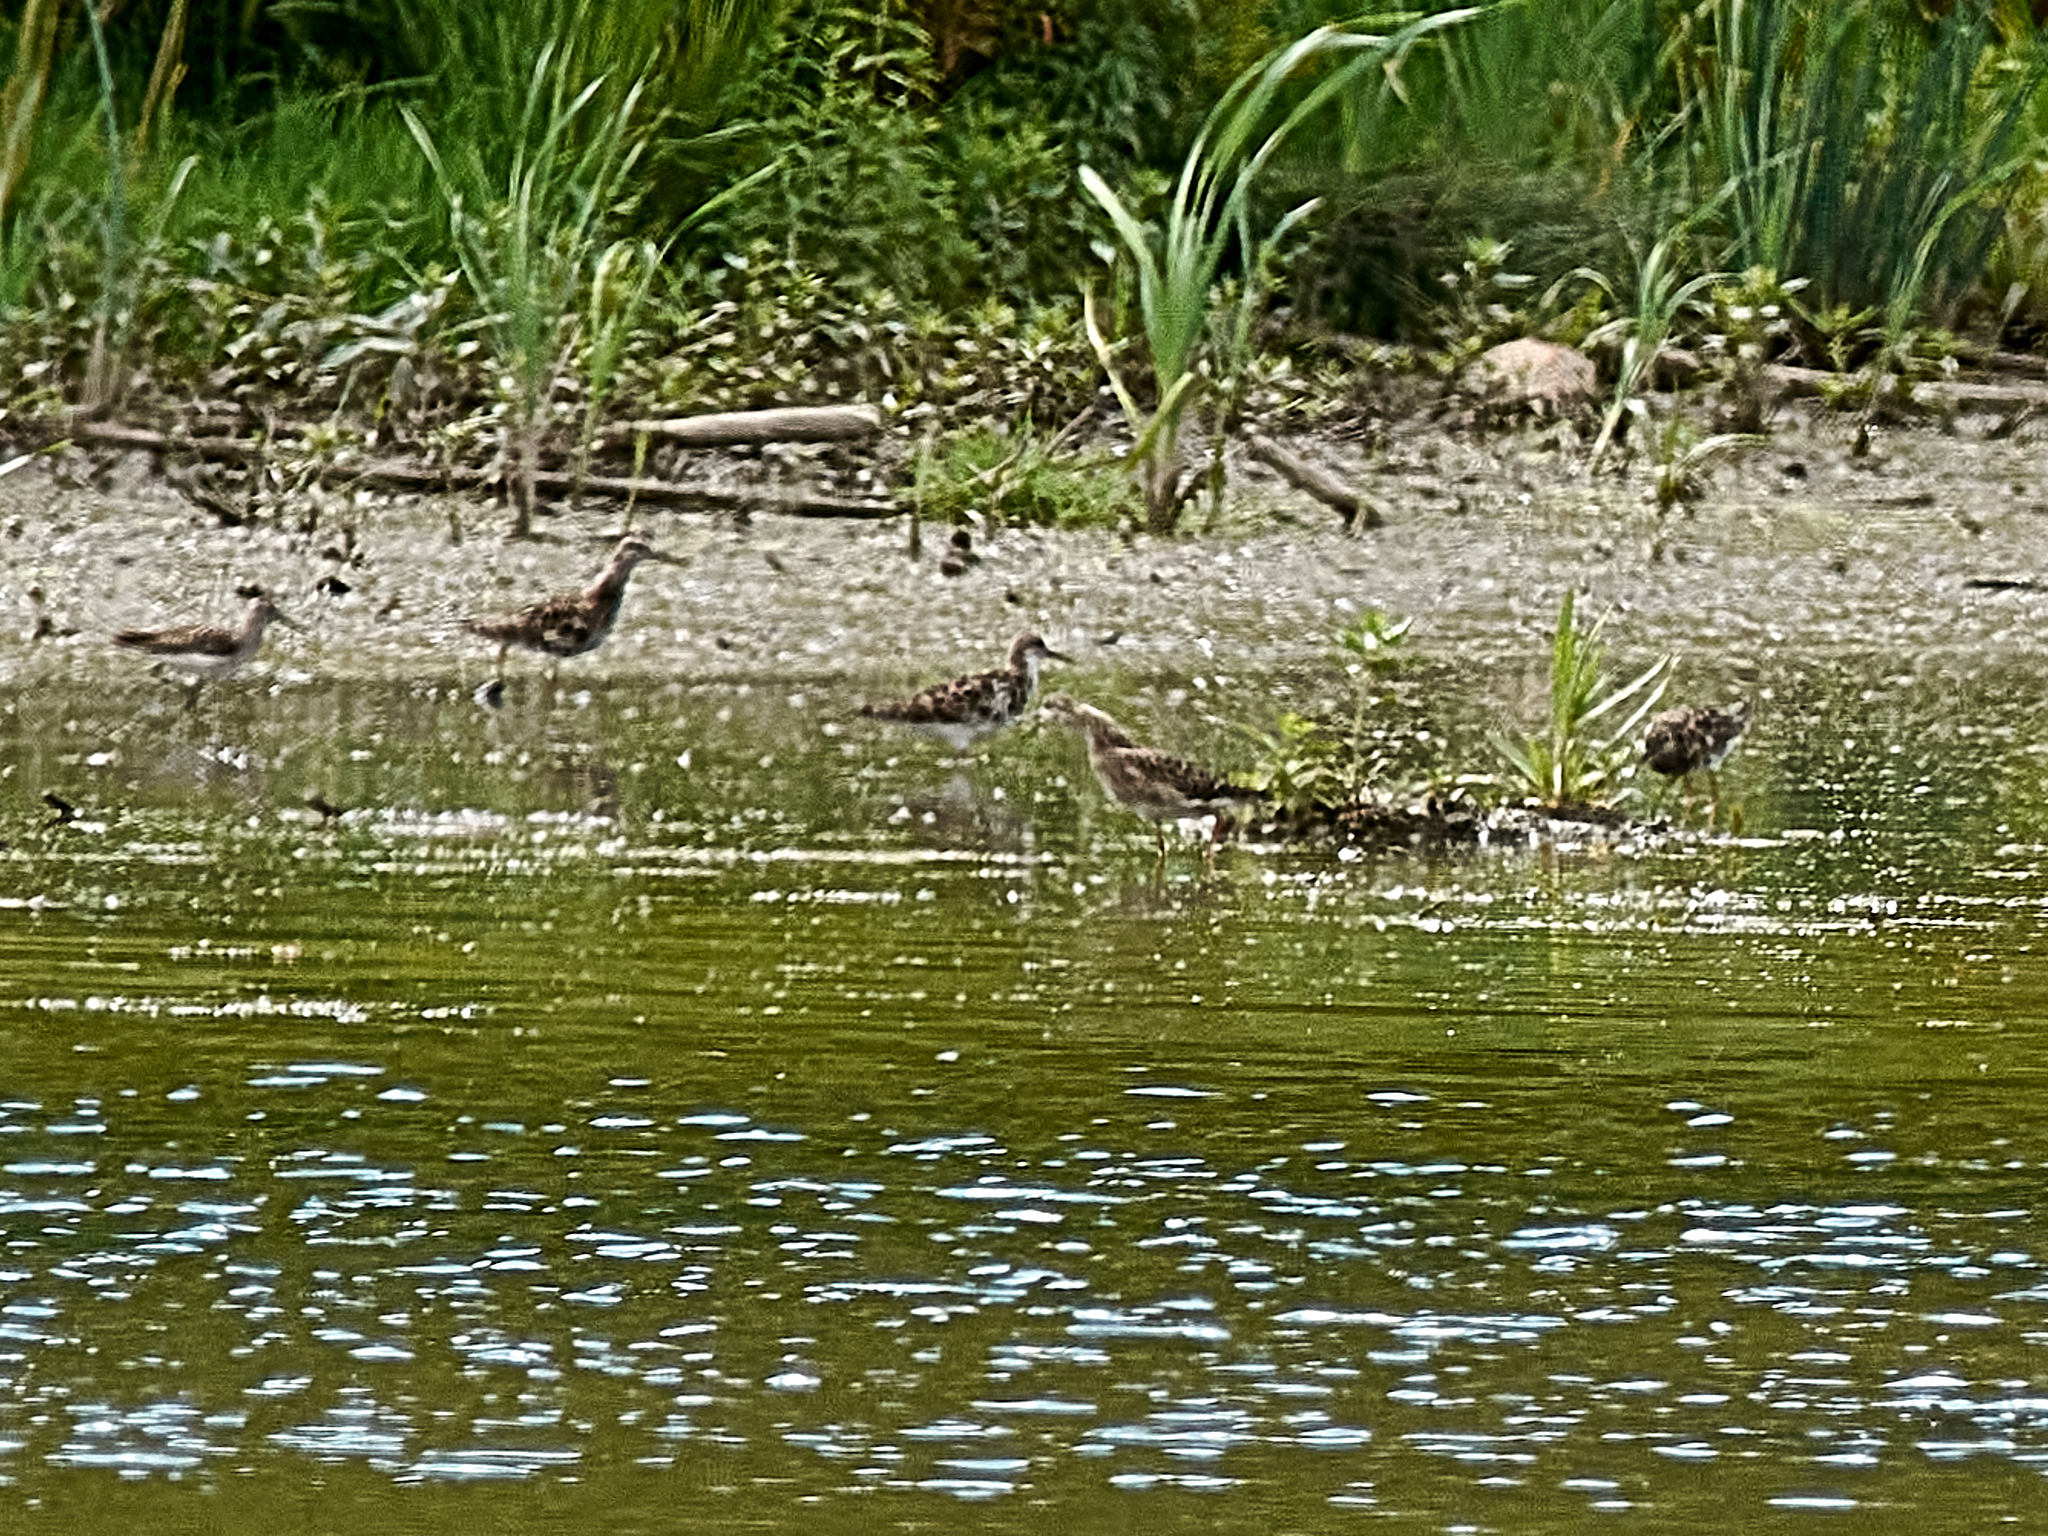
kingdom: Animalia
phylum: Chordata
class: Aves
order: Charadriiformes
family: Scolopacidae
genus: Calidris
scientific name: Calidris pugnax
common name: Ruff
